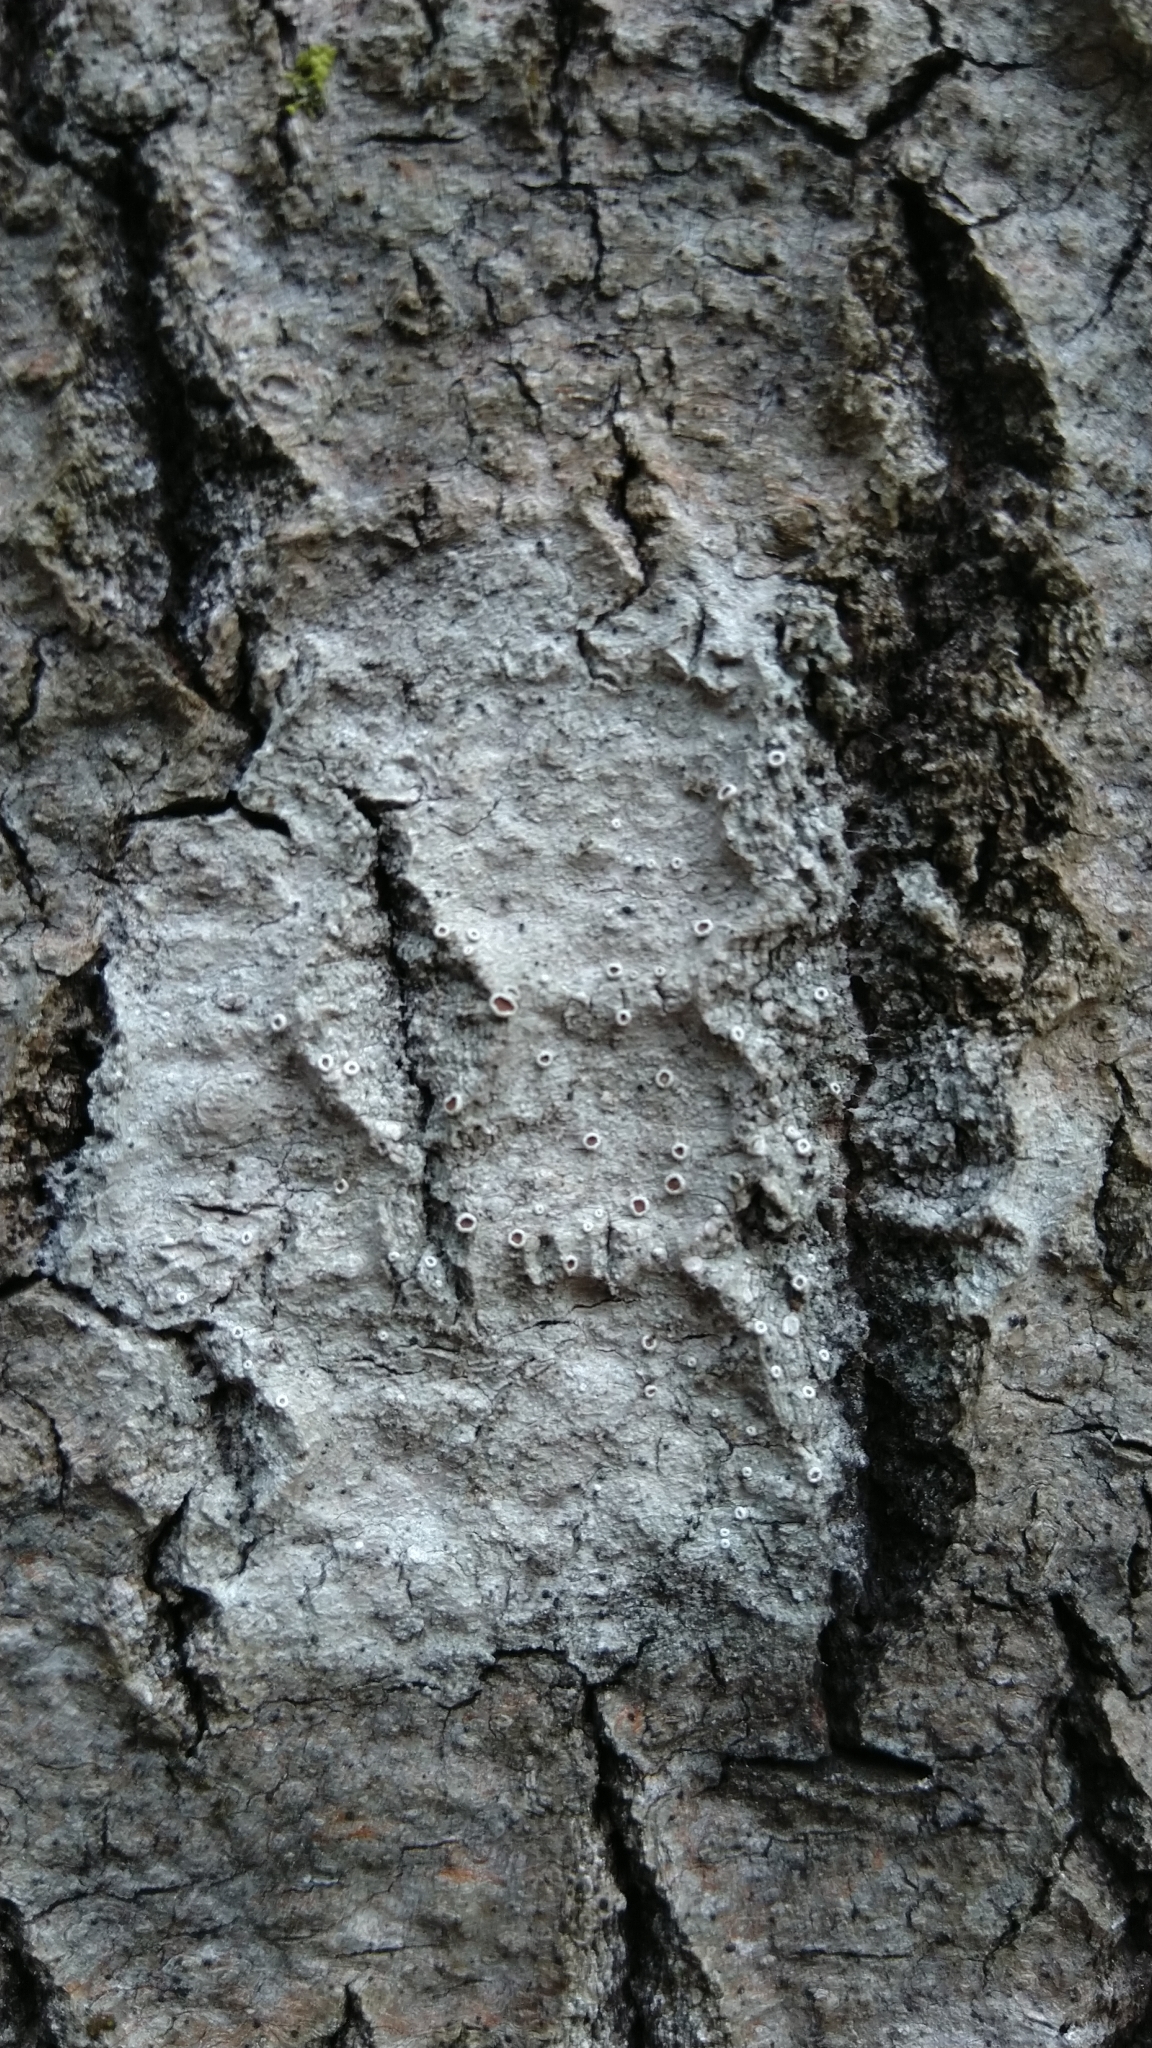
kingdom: Fungi
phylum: Ascomycota
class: Lecanoromycetes
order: Lecanorales
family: Lecanoraceae
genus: Lecanora
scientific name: Lecanora
